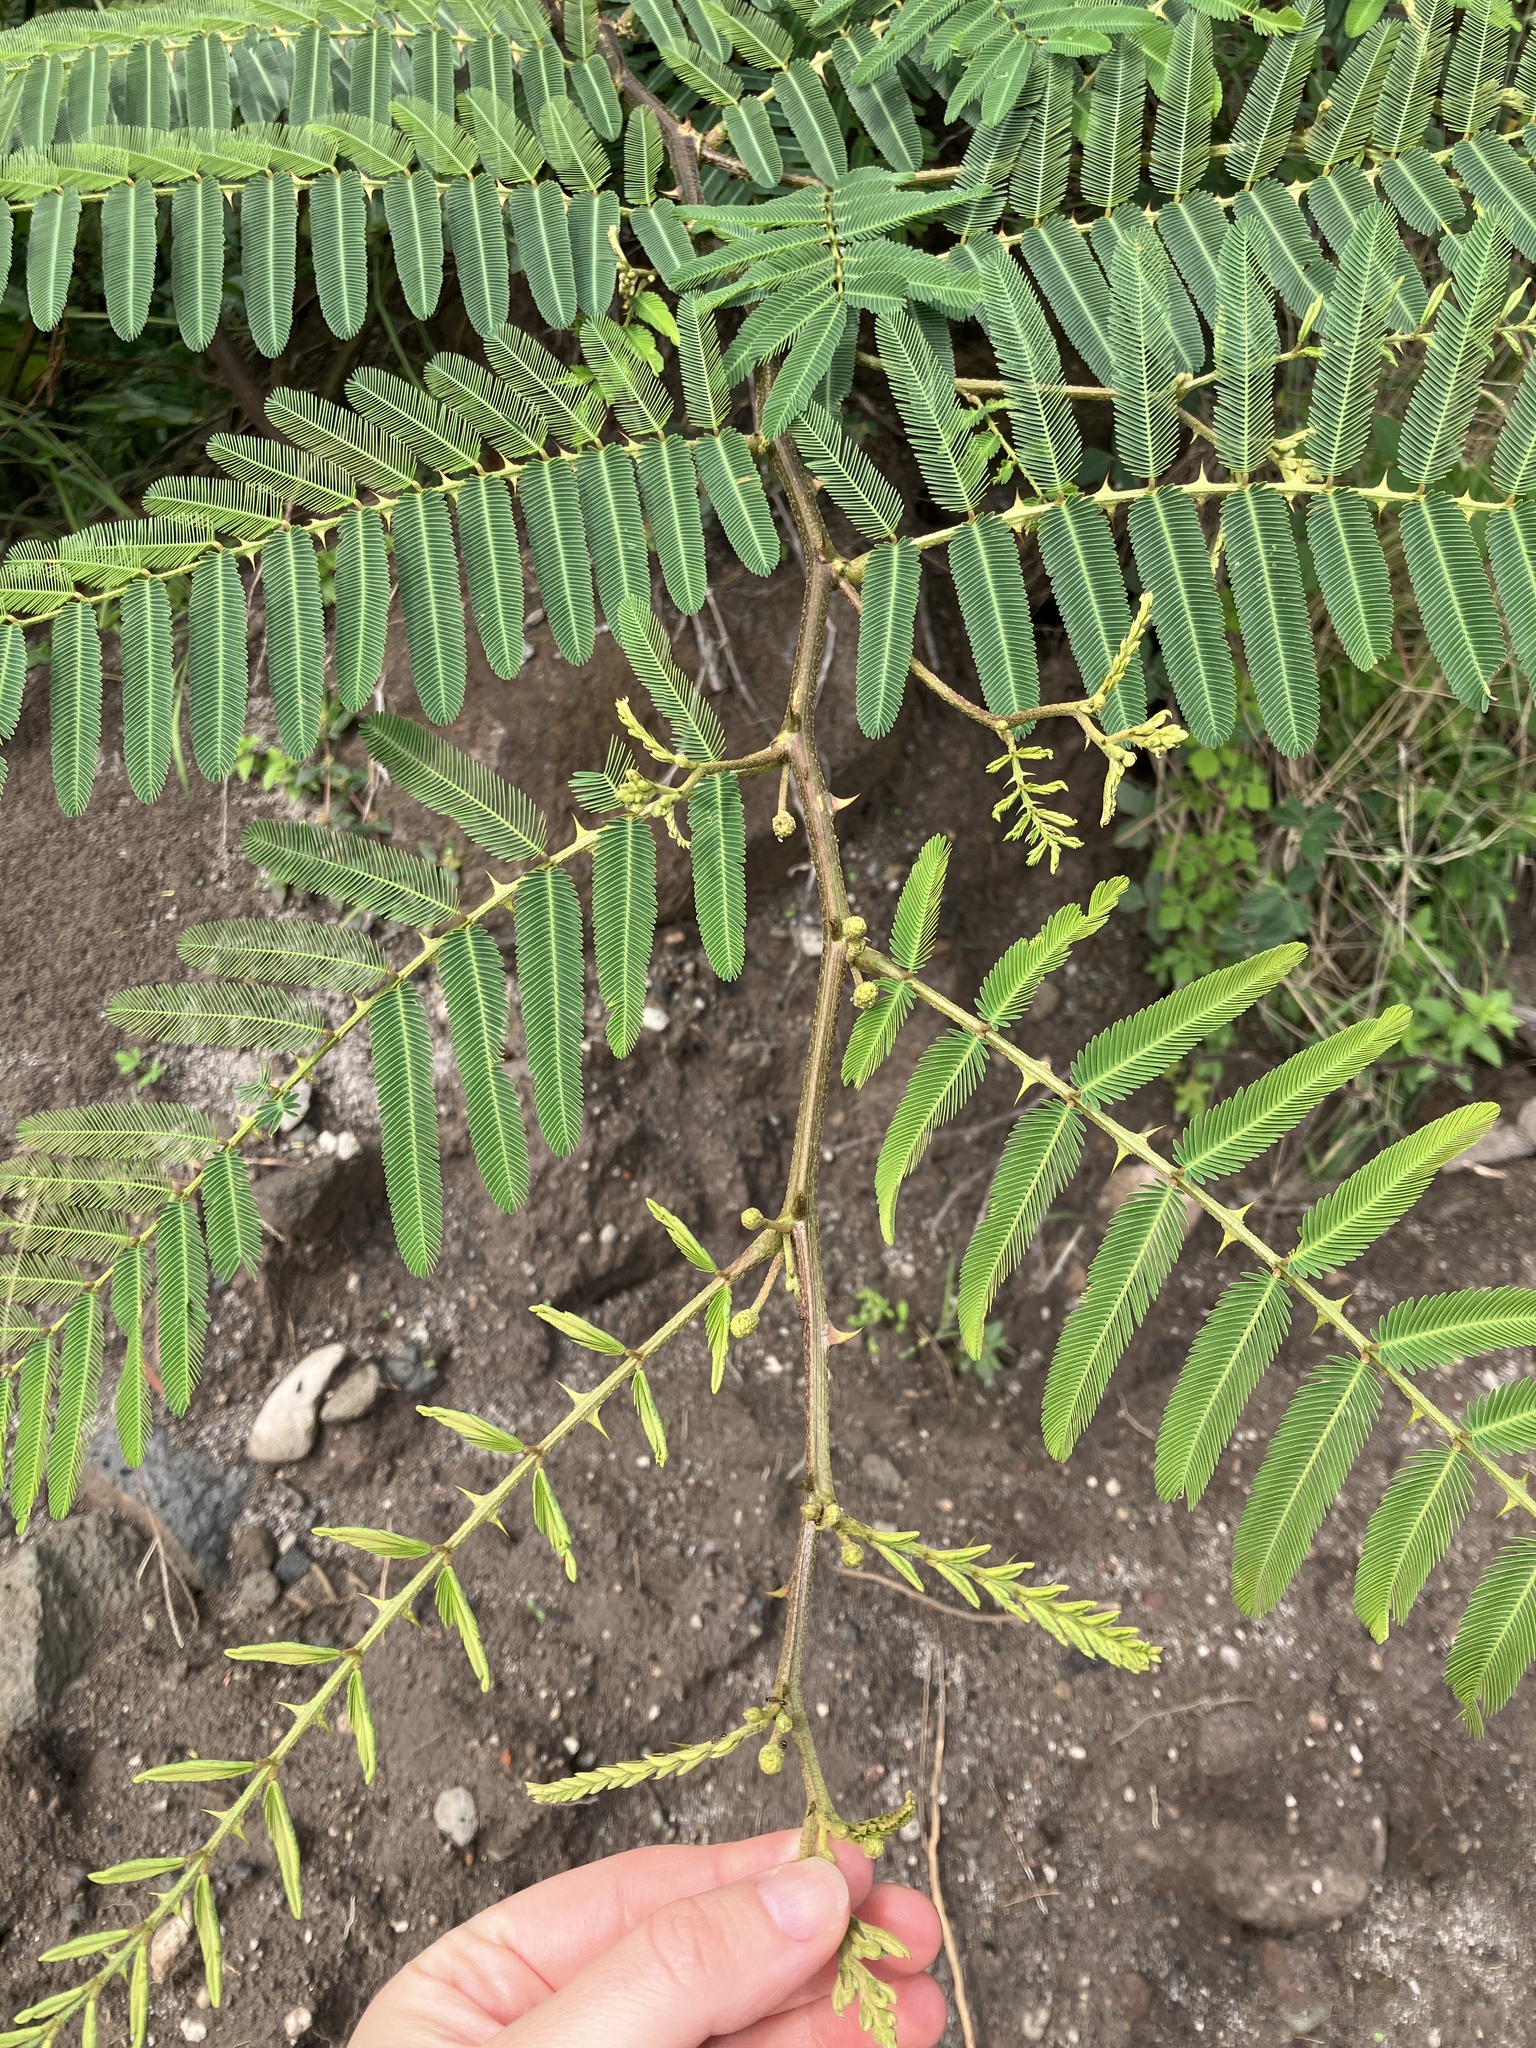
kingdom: Plantae
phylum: Tracheophyta
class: Magnoliopsida
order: Fabales
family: Fabaceae
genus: Mimosa
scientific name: Mimosa pigra
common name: Black mimosa
